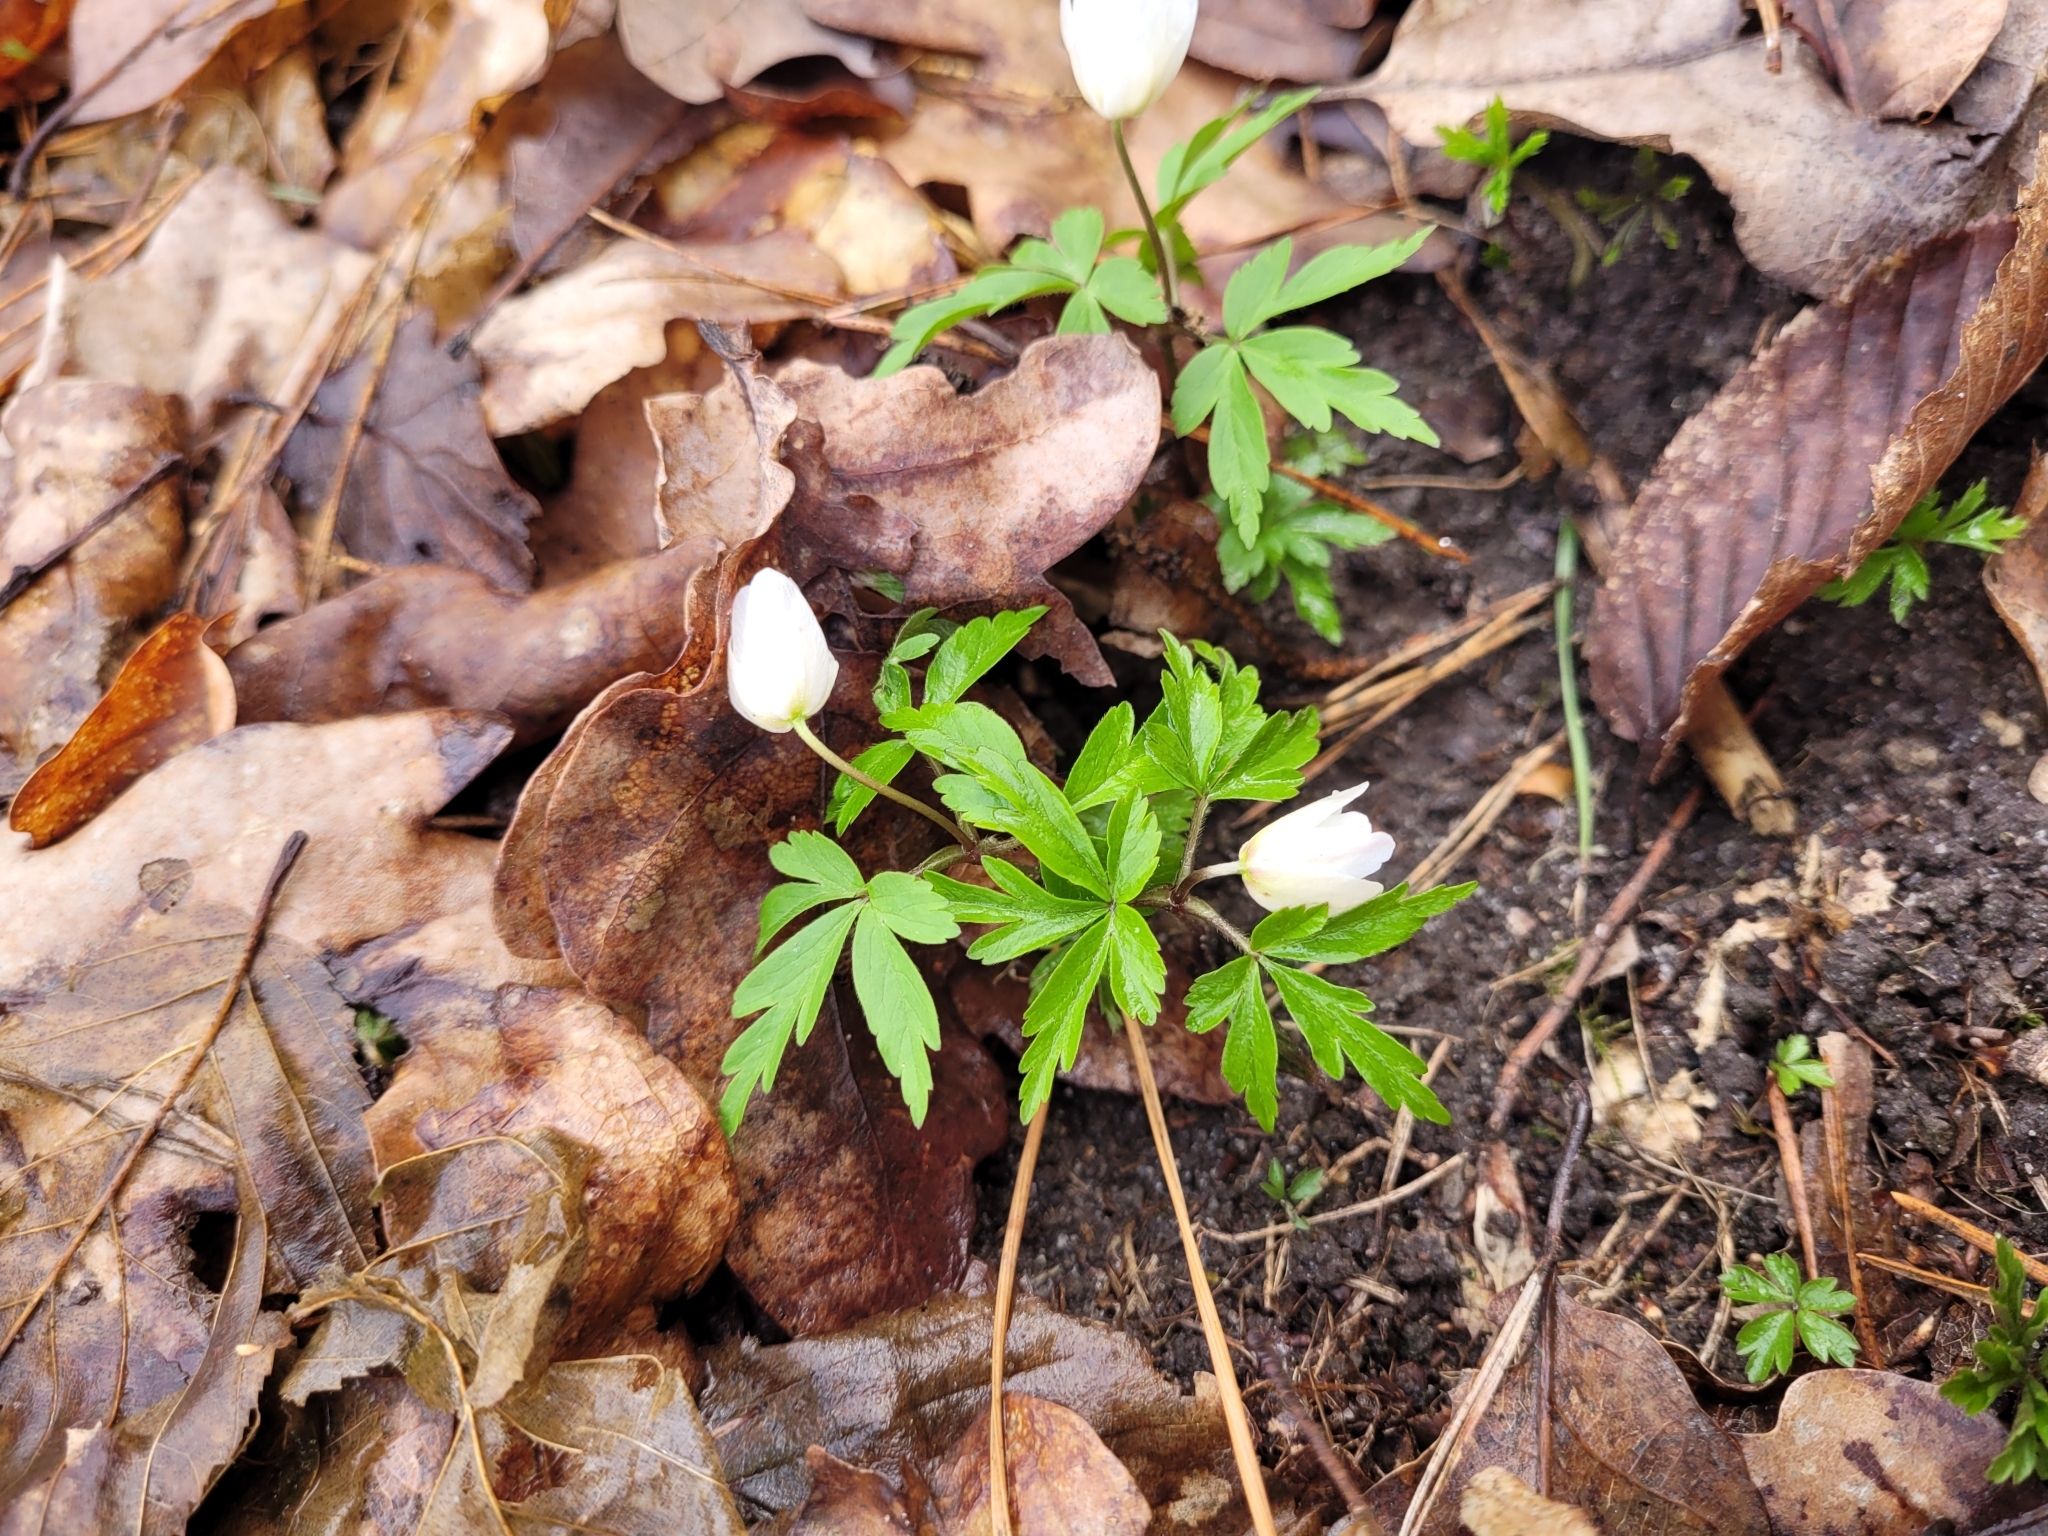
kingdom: Plantae
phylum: Tracheophyta
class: Magnoliopsida
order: Ranunculales
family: Ranunculaceae
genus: Anemone
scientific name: Anemone nemorosa
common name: Wood anemone
